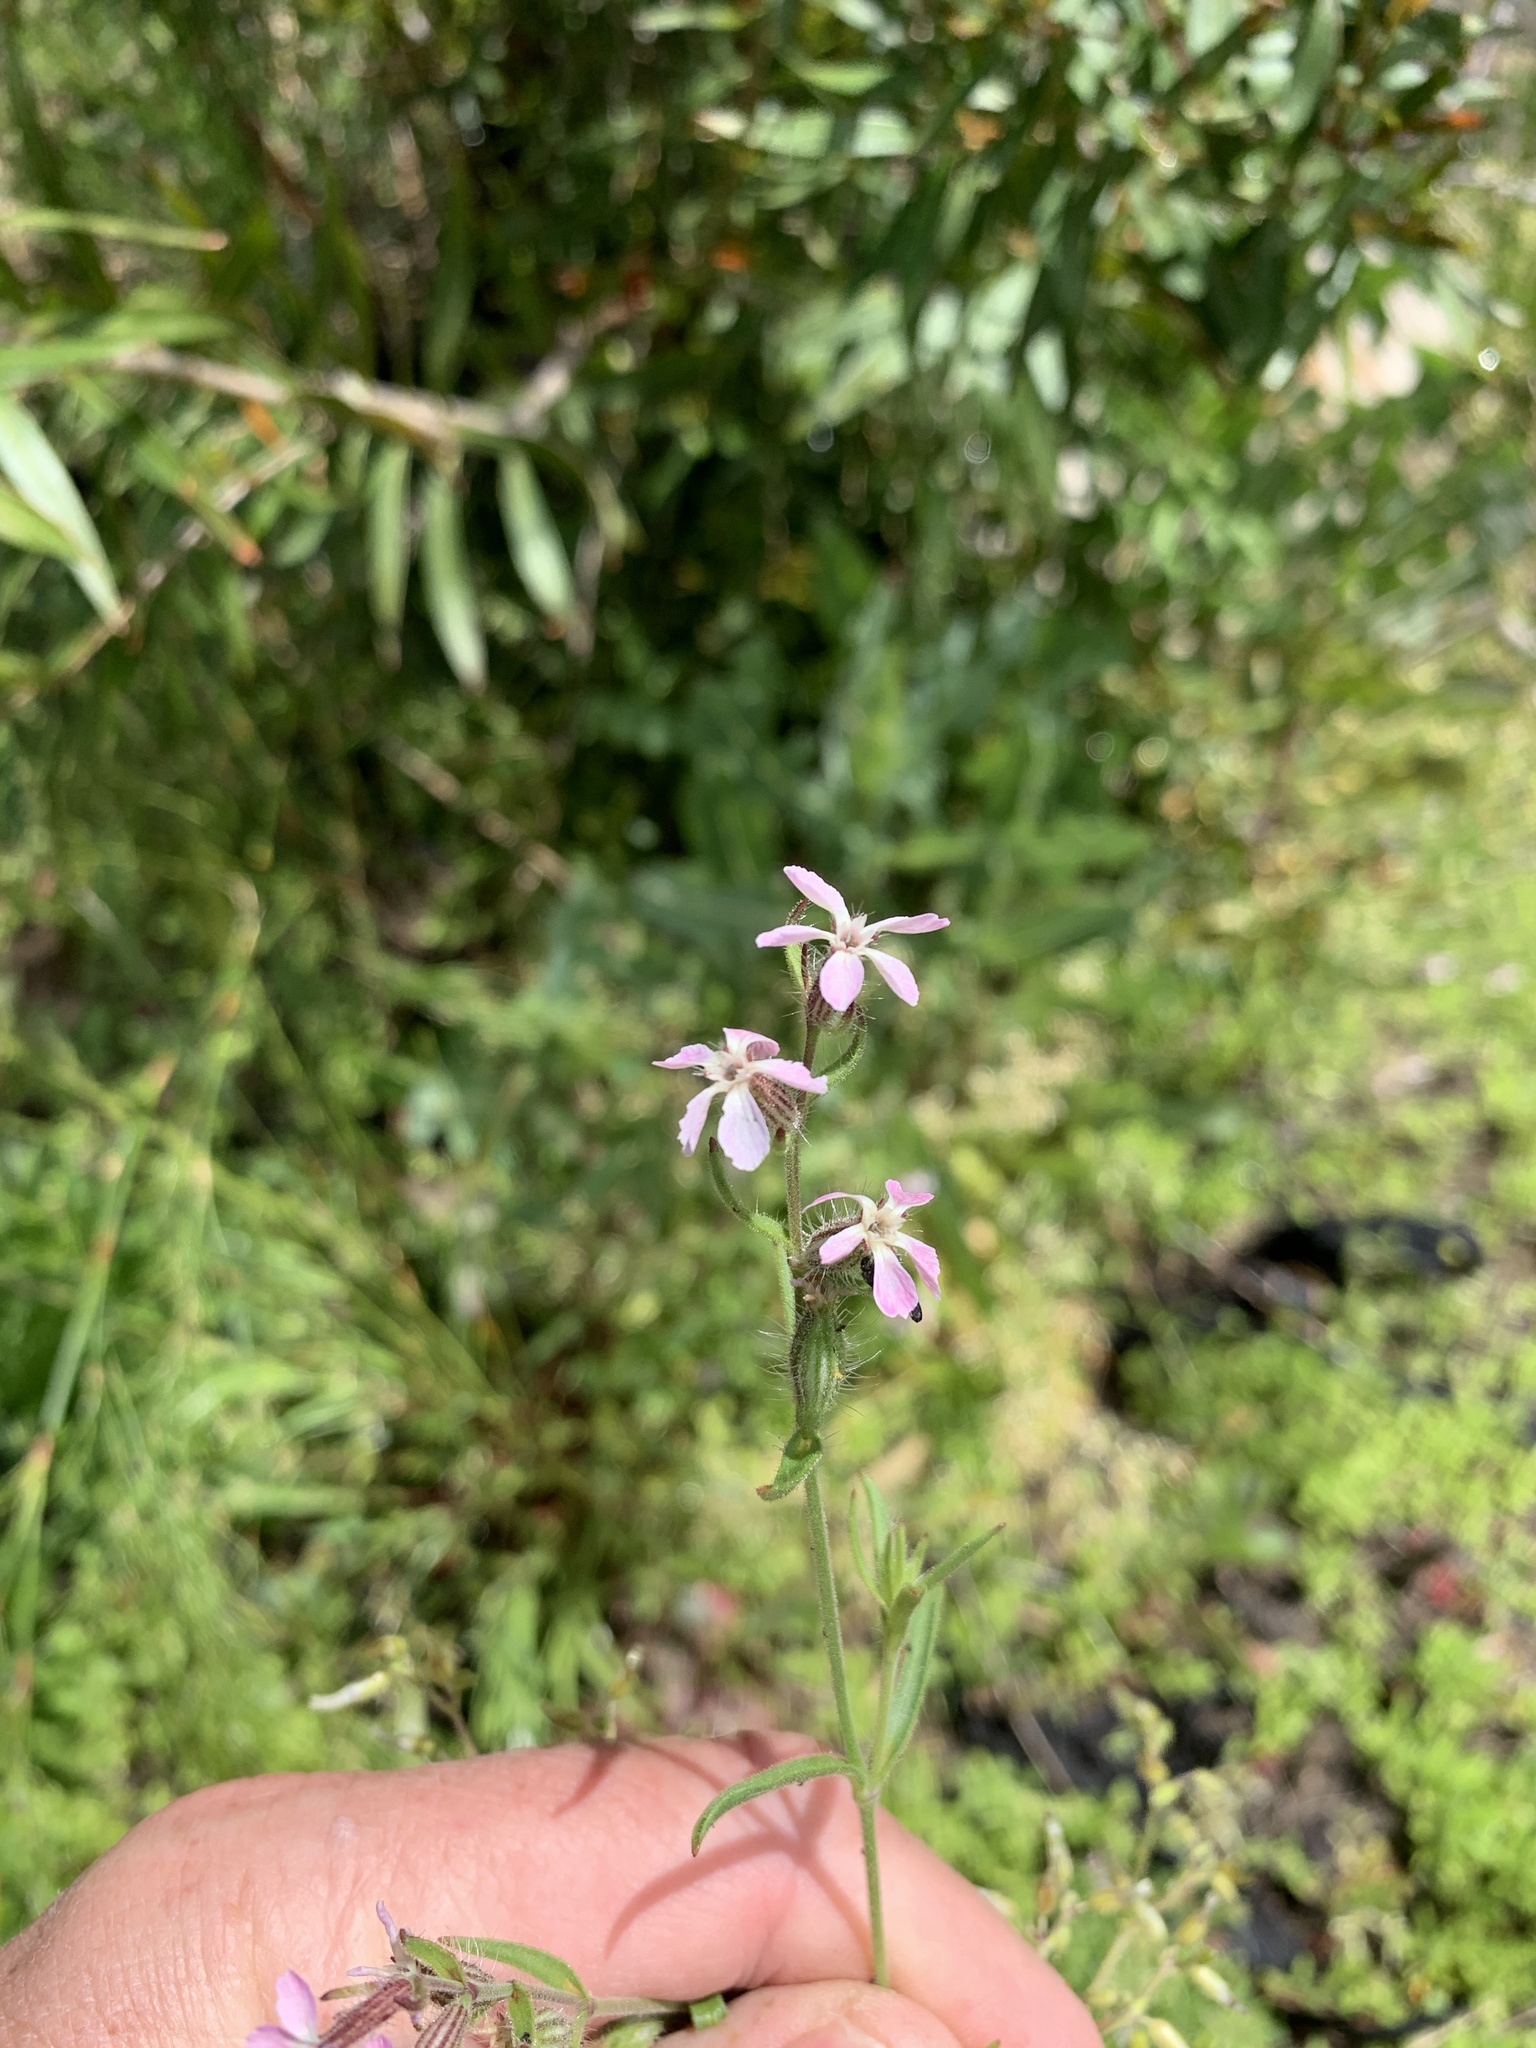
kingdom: Plantae
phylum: Tracheophyta
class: Magnoliopsida
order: Caryophyllales
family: Caryophyllaceae
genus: Silene
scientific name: Silene gallica
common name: Small-flowered catchfly
